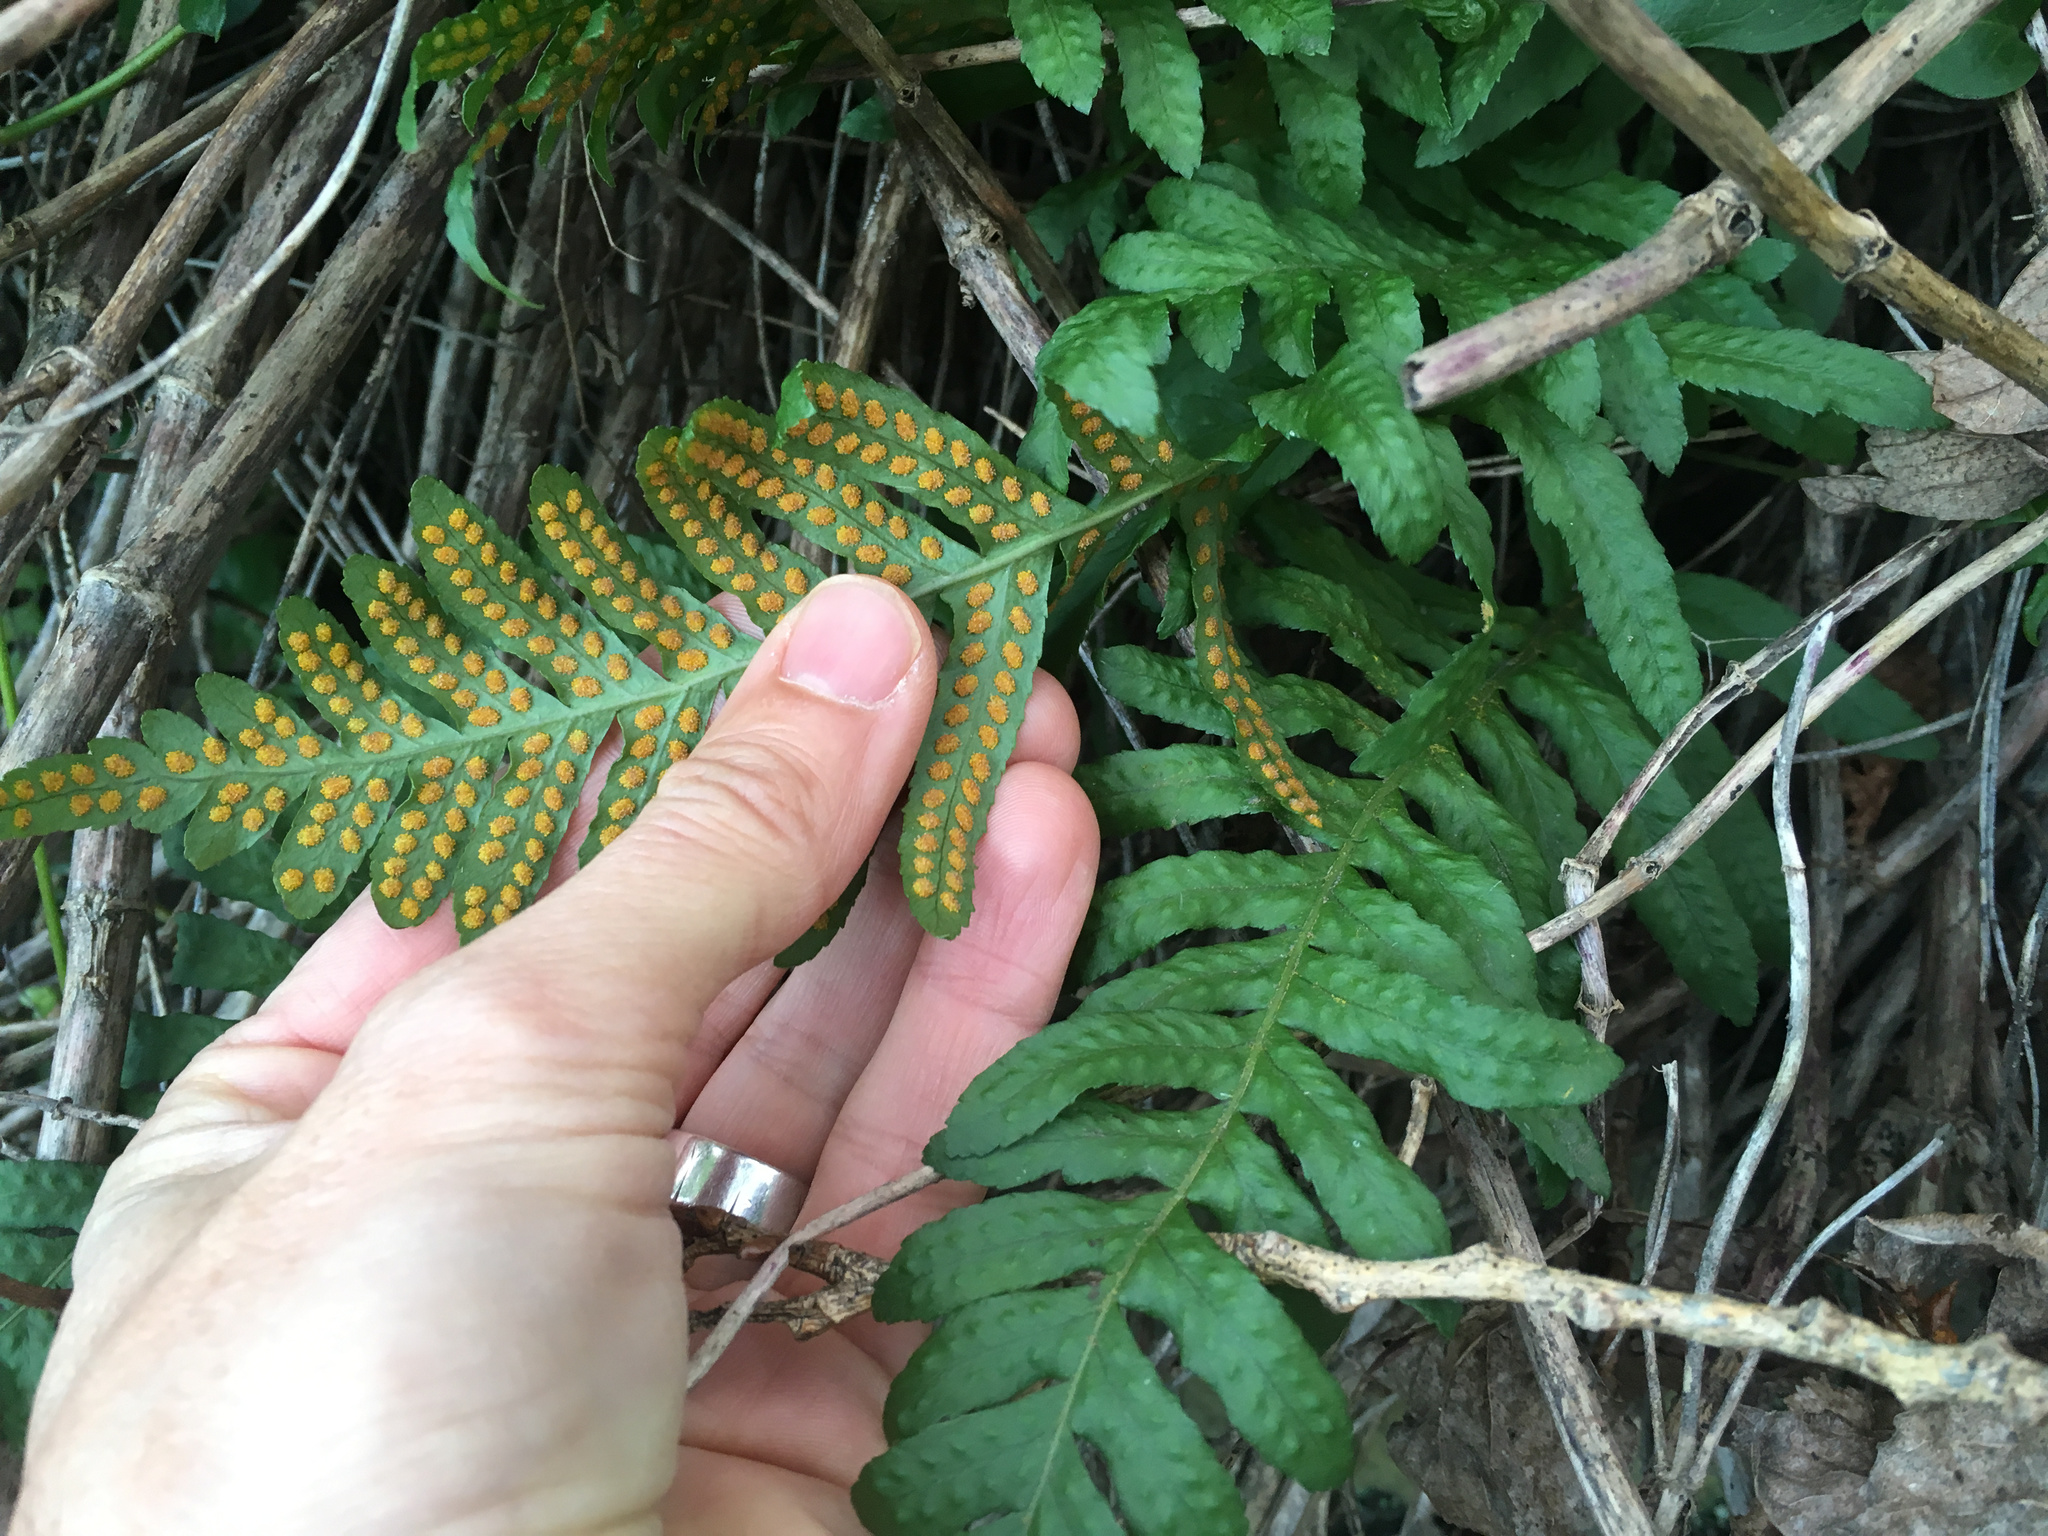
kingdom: Plantae
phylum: Tracheophyta
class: Polypodiopsida
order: Polypodiales
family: Polypodiaceae
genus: Polypodium
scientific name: Polypodium vulgare
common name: Common polypody
